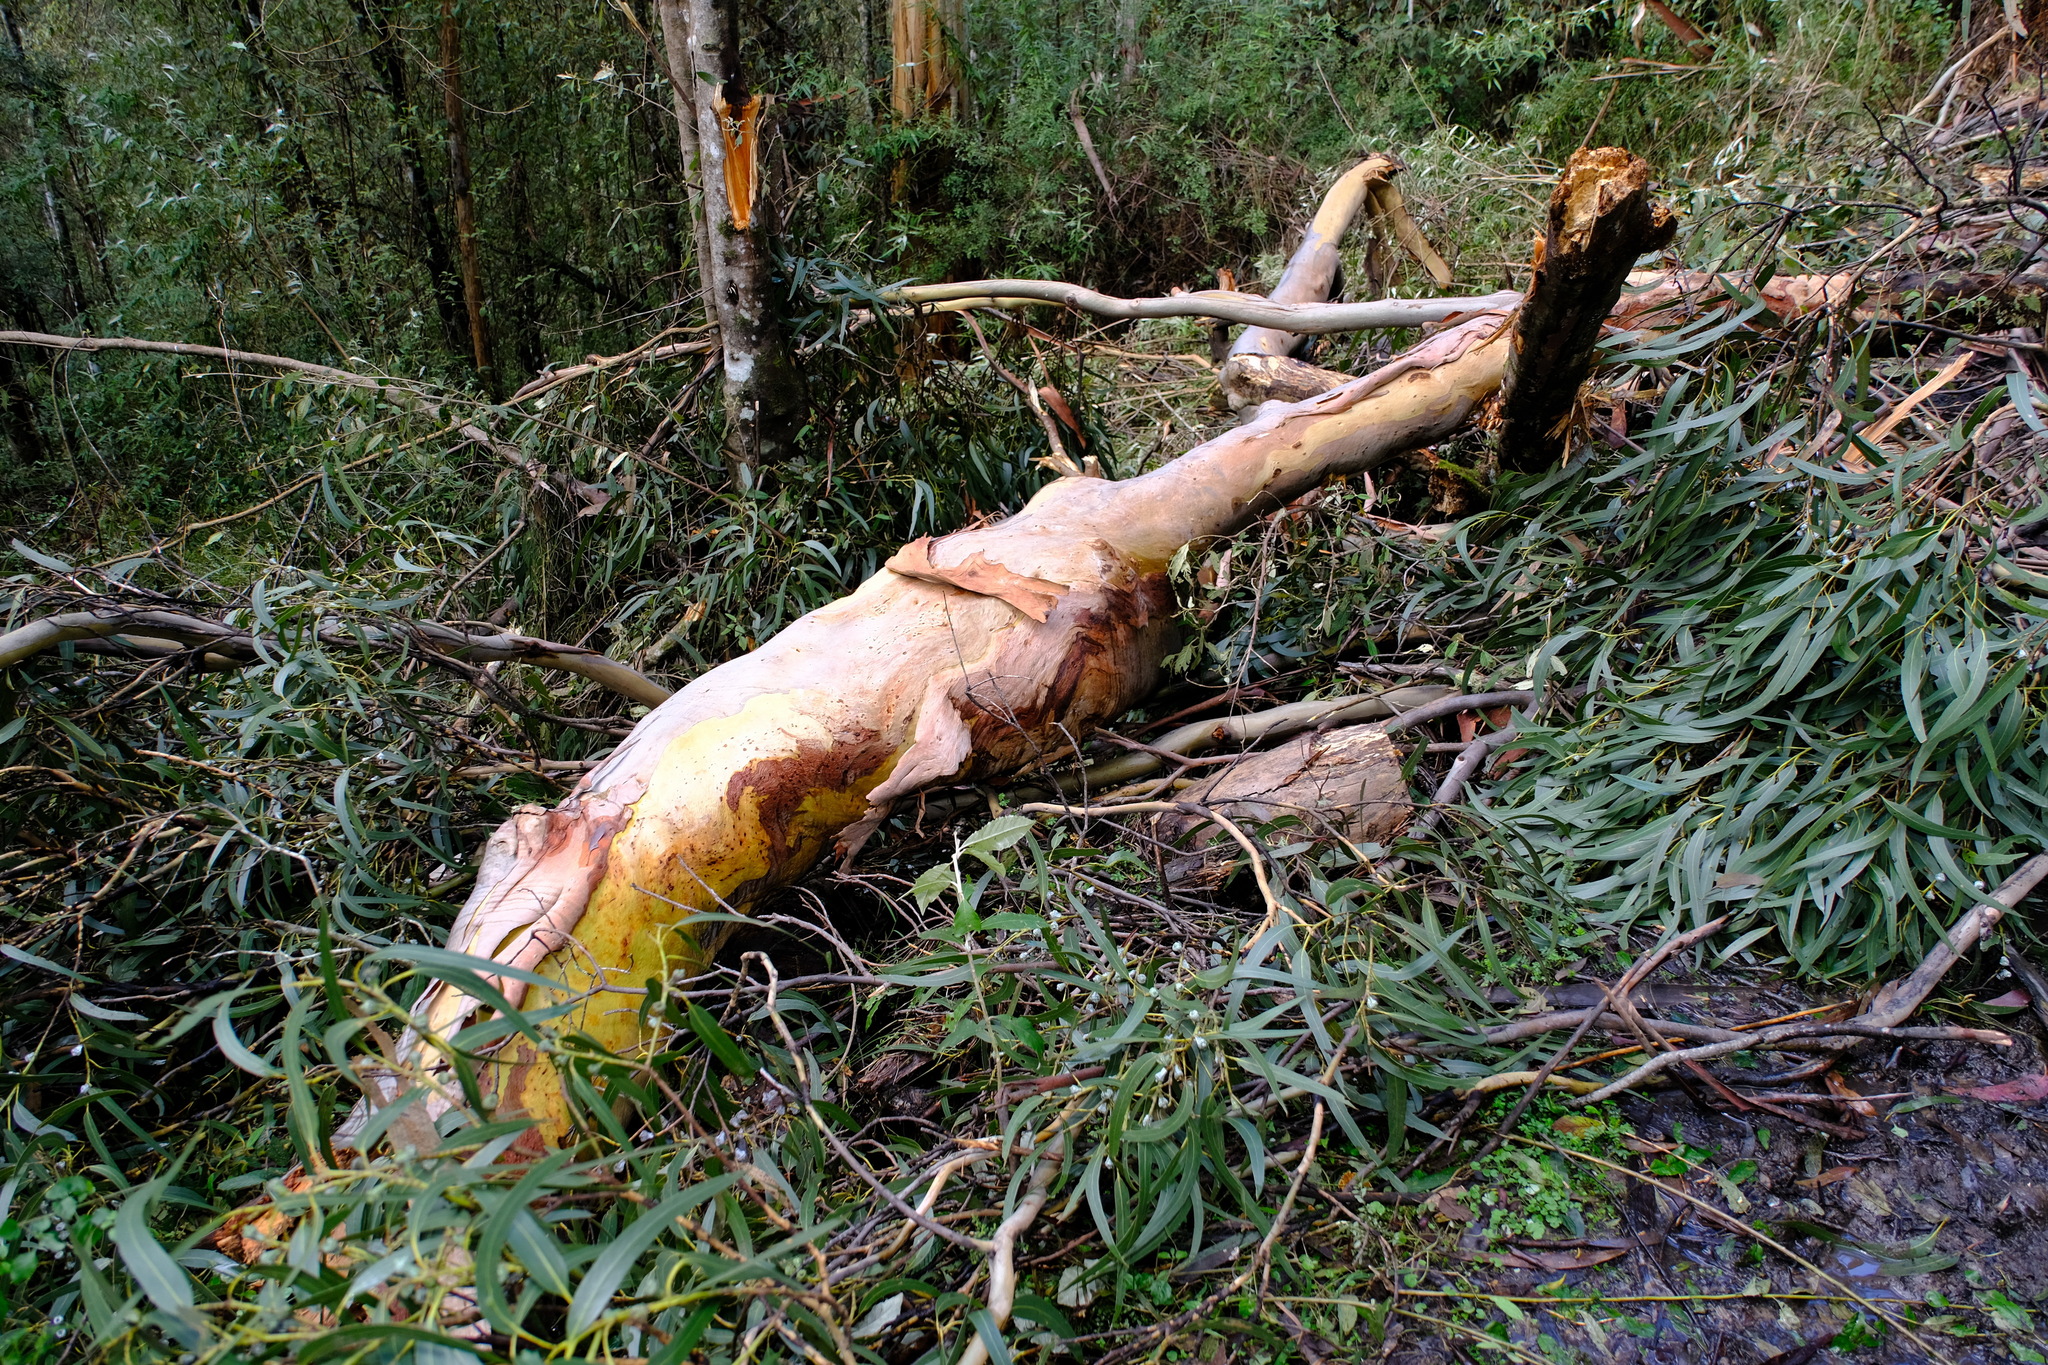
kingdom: Plantae
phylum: Tracheophyta
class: Magnoliopsida
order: Myrtales
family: Myrtaceae
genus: Eucalyptus
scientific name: Eucalyptus globulus
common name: Southern blue-gum
